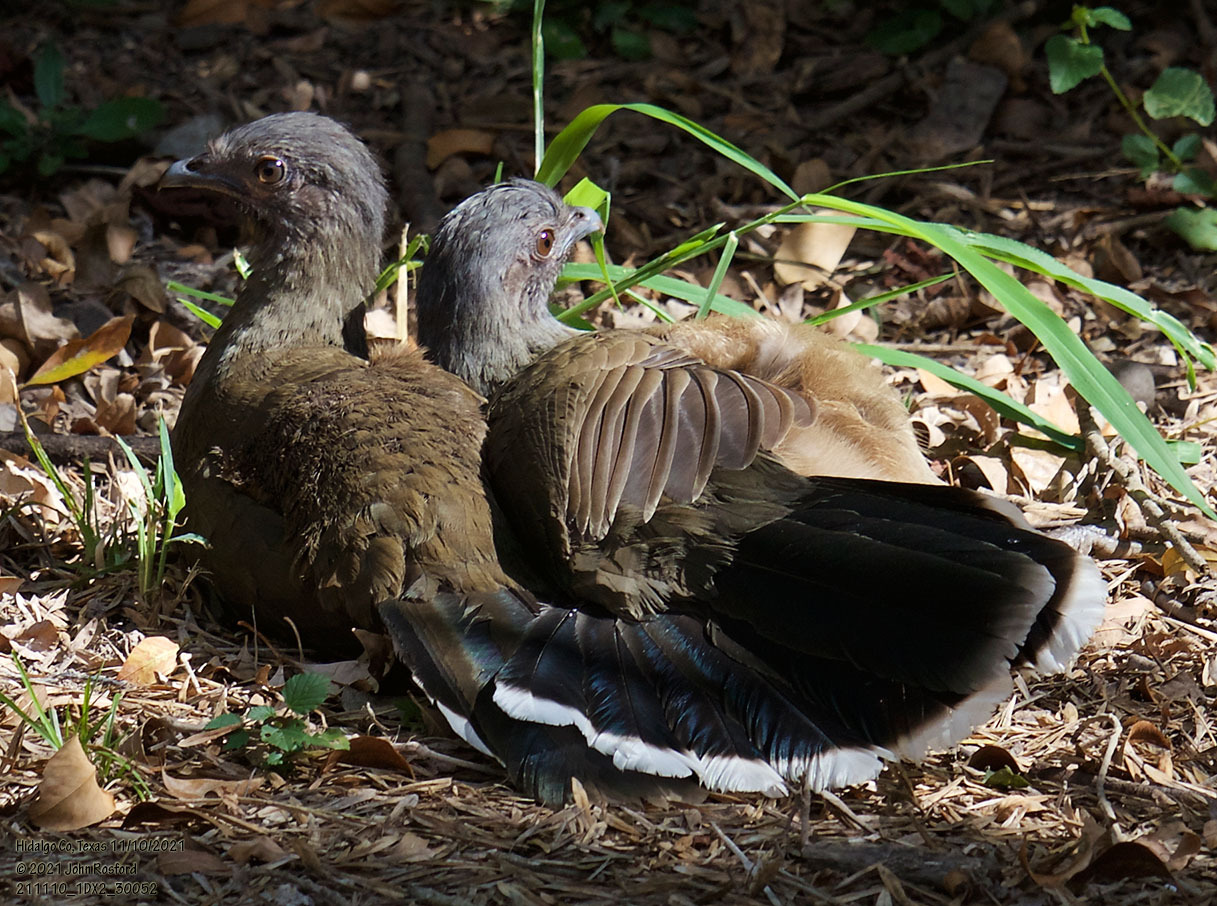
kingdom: Animalia
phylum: Chordata
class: Aves
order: Galliformes
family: Cracidae
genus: Ortalis
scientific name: Ortalis vetula
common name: Plain chachalaca
